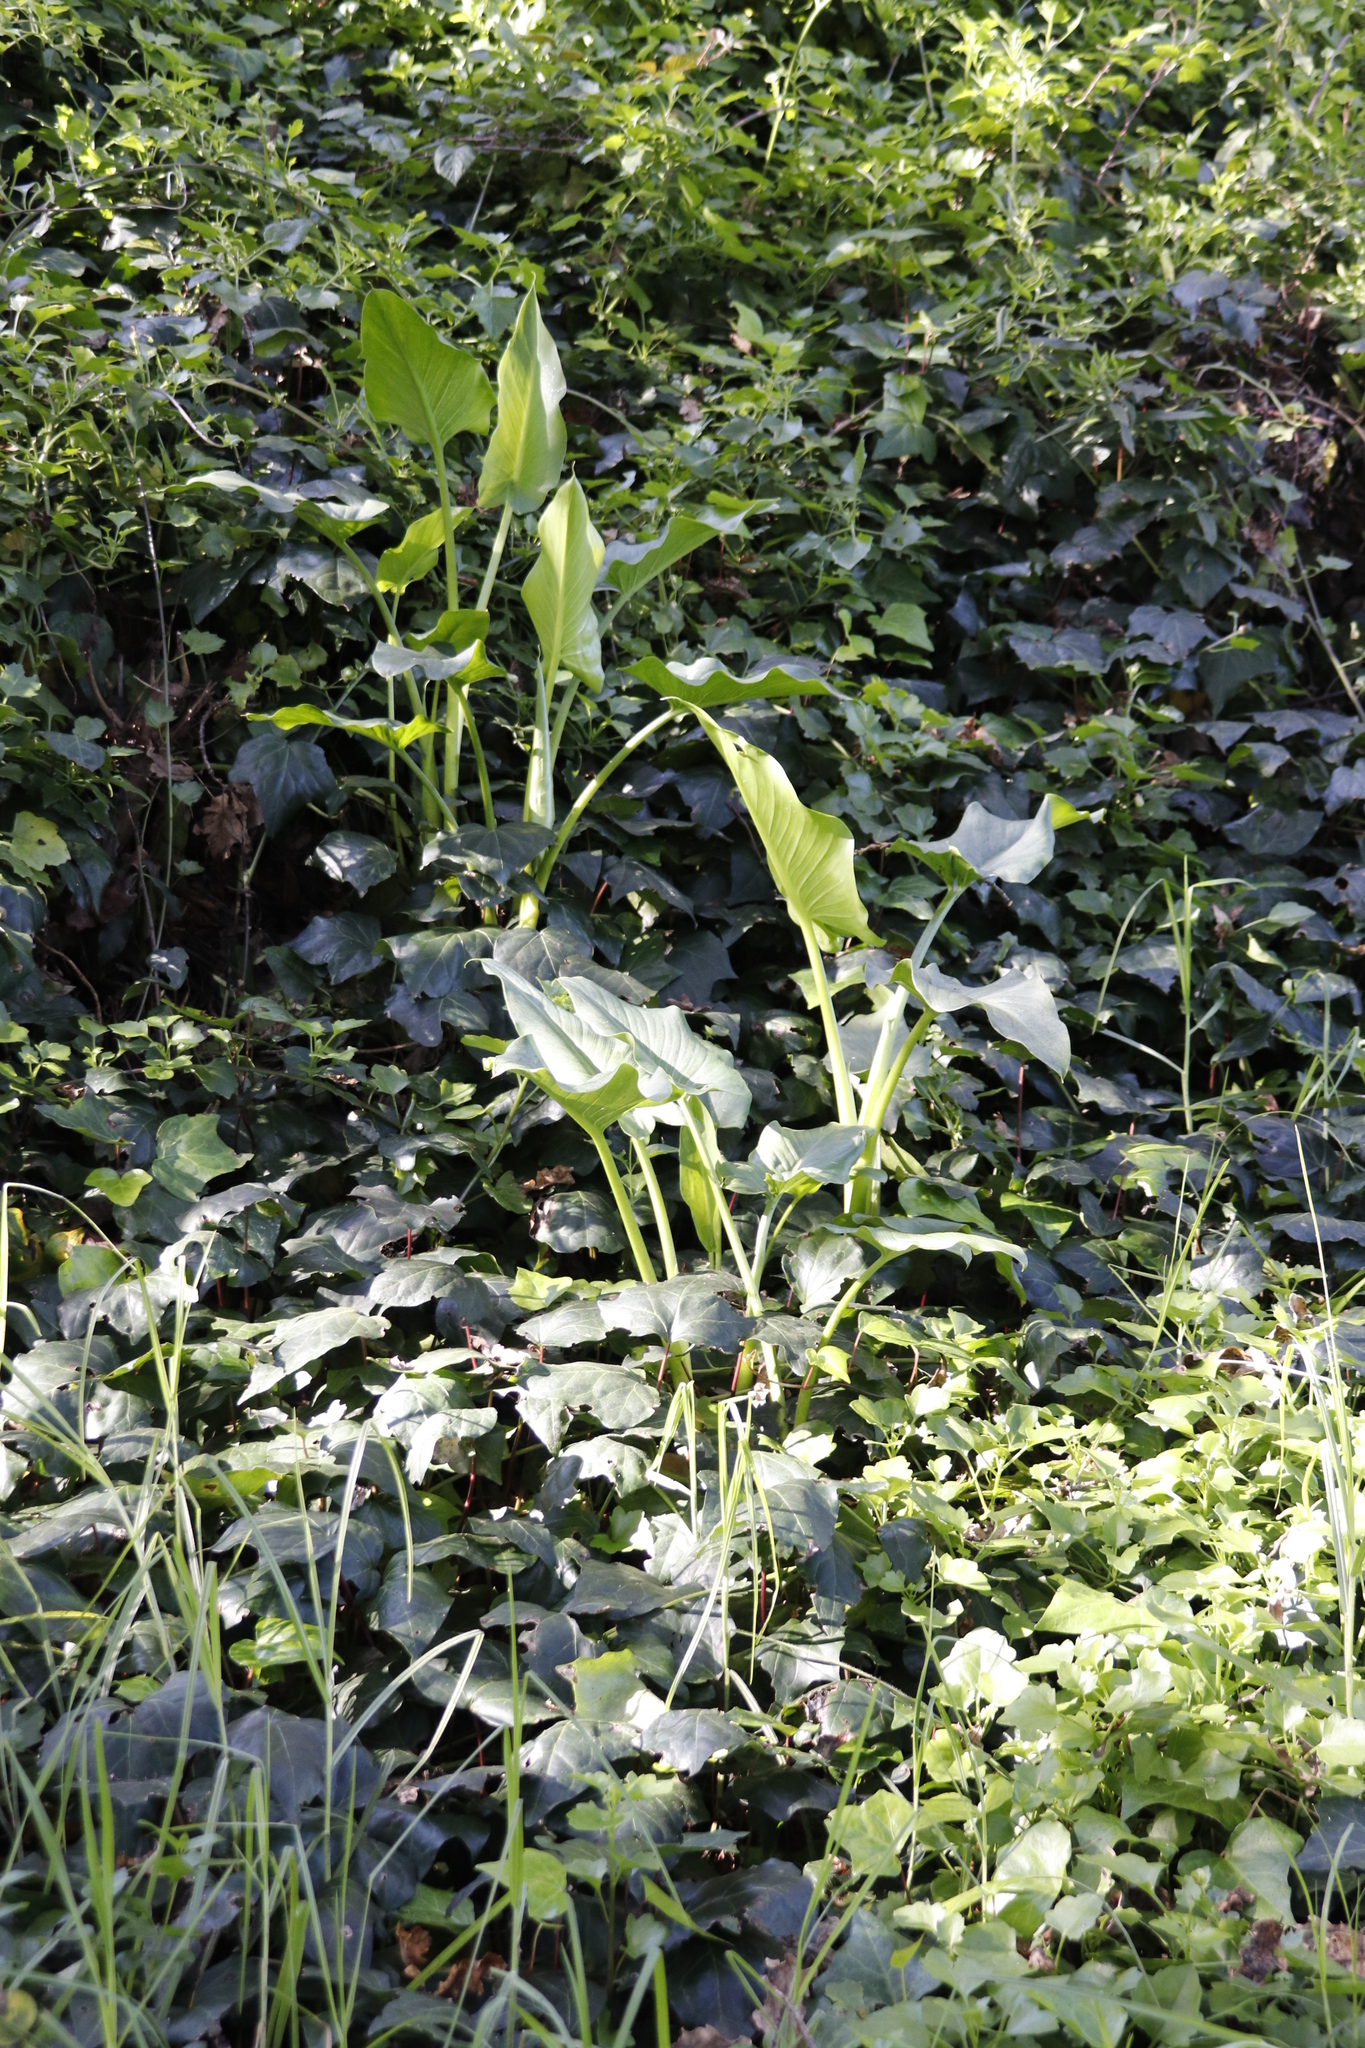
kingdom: Plantae
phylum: Tracheophyta
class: Liliopsida
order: Alismatales
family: Araceae
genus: Zantedeschia
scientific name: Zantedeschia aethiopica
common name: Altar-lily
